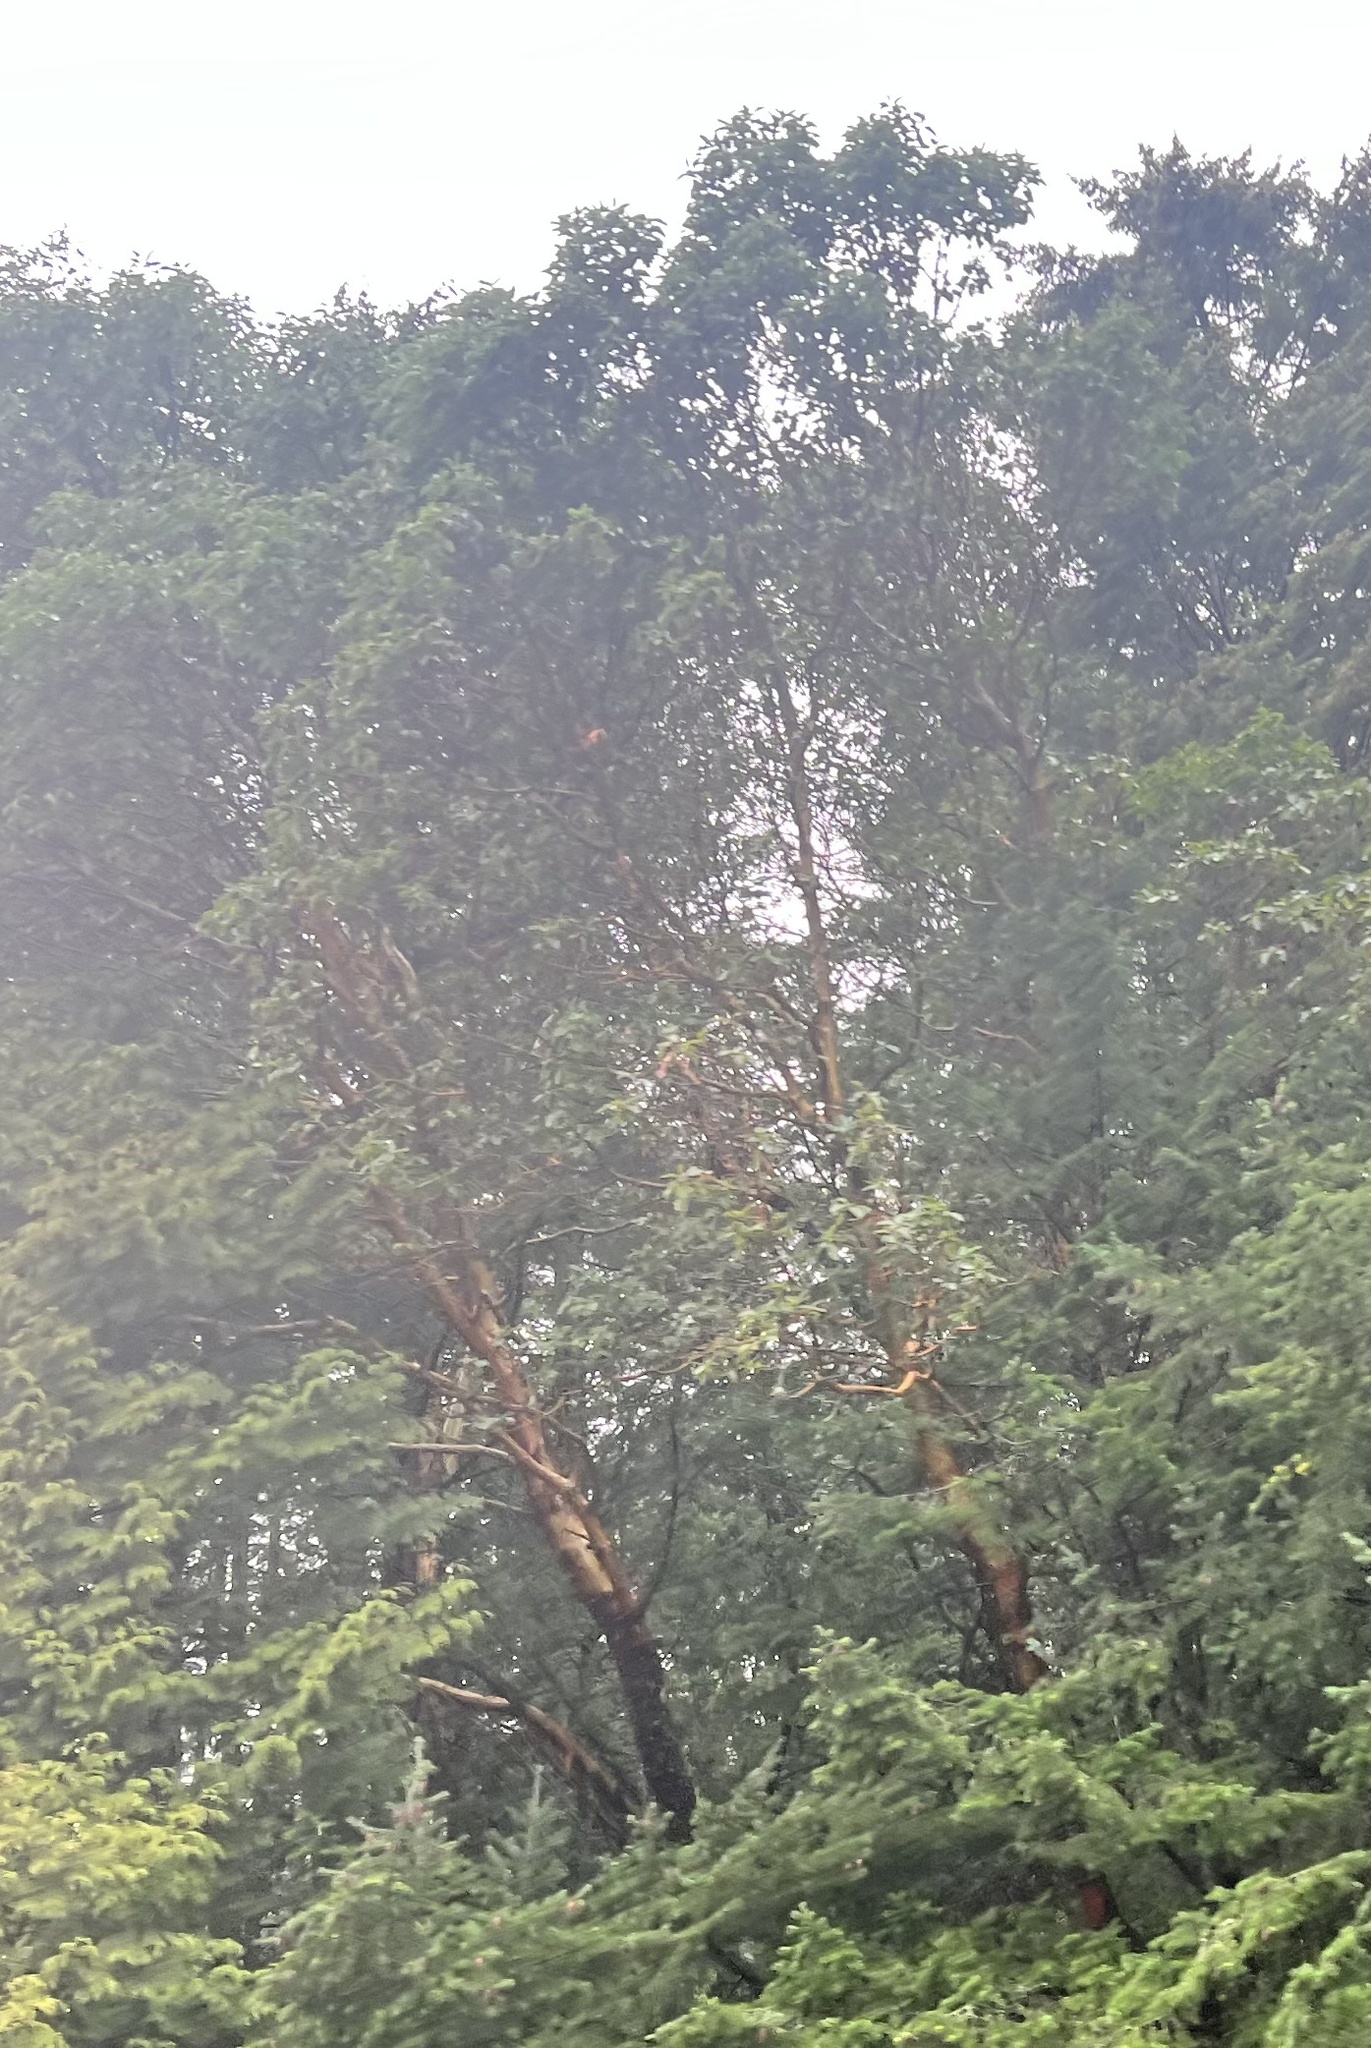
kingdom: Plantae
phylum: Tracheophyta
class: Magnoliopsida
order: Ericales
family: Ericaceae
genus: Arbutus
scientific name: Arbutus menziesii
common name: Pacific madrone
